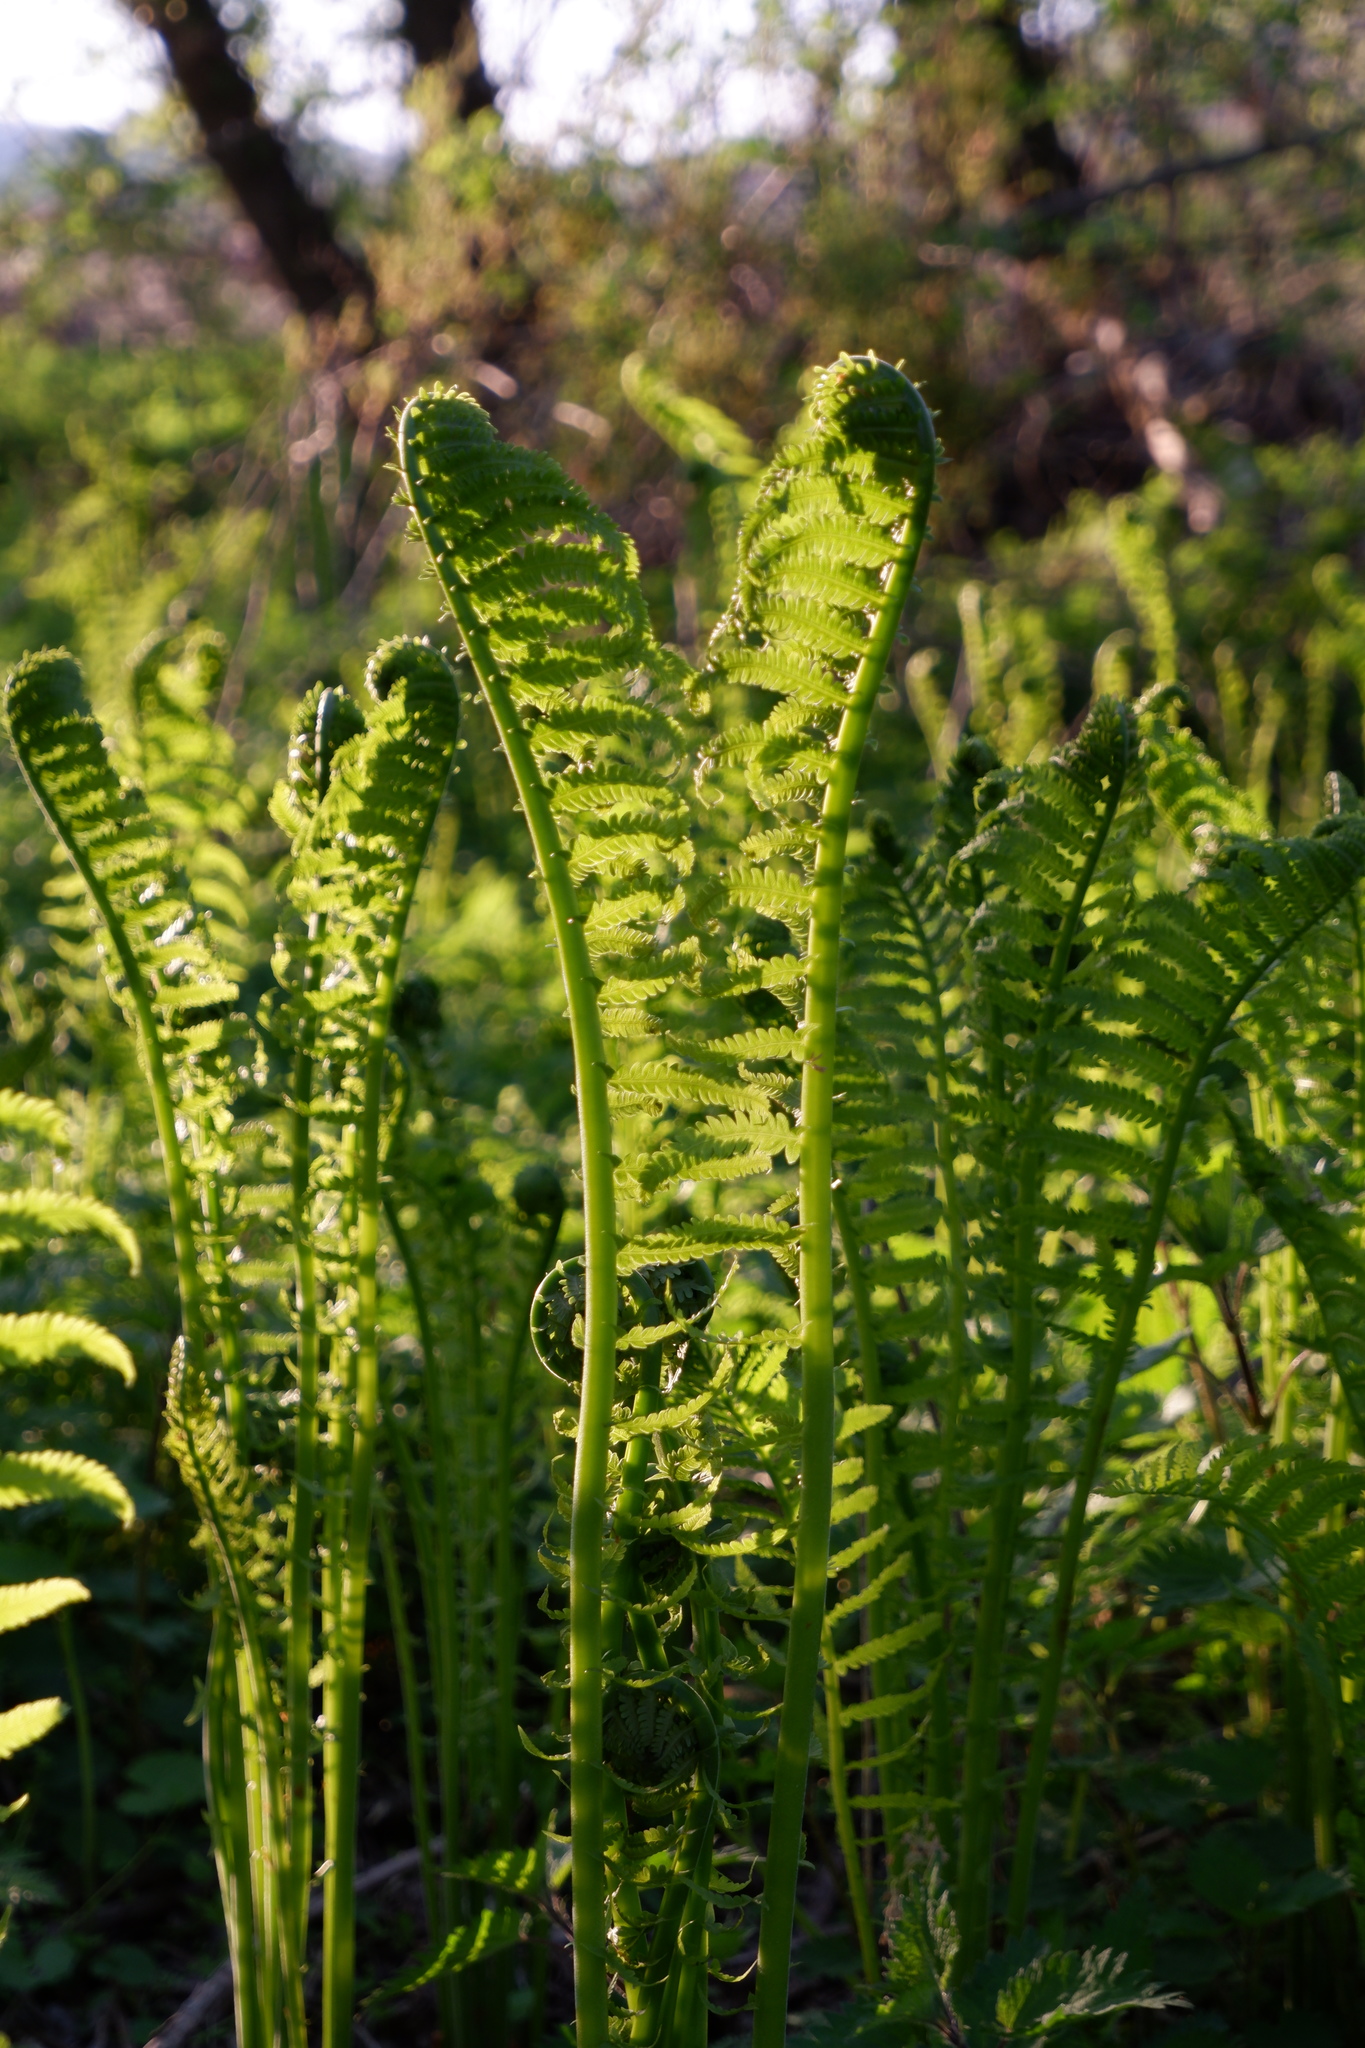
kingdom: Plantae
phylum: Tracheophyta
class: Polypodiopsida
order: Polypodiales
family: Onocleaceae
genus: Matteuccia
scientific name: Matteuccia struthiopteris
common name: Ostrich fern
